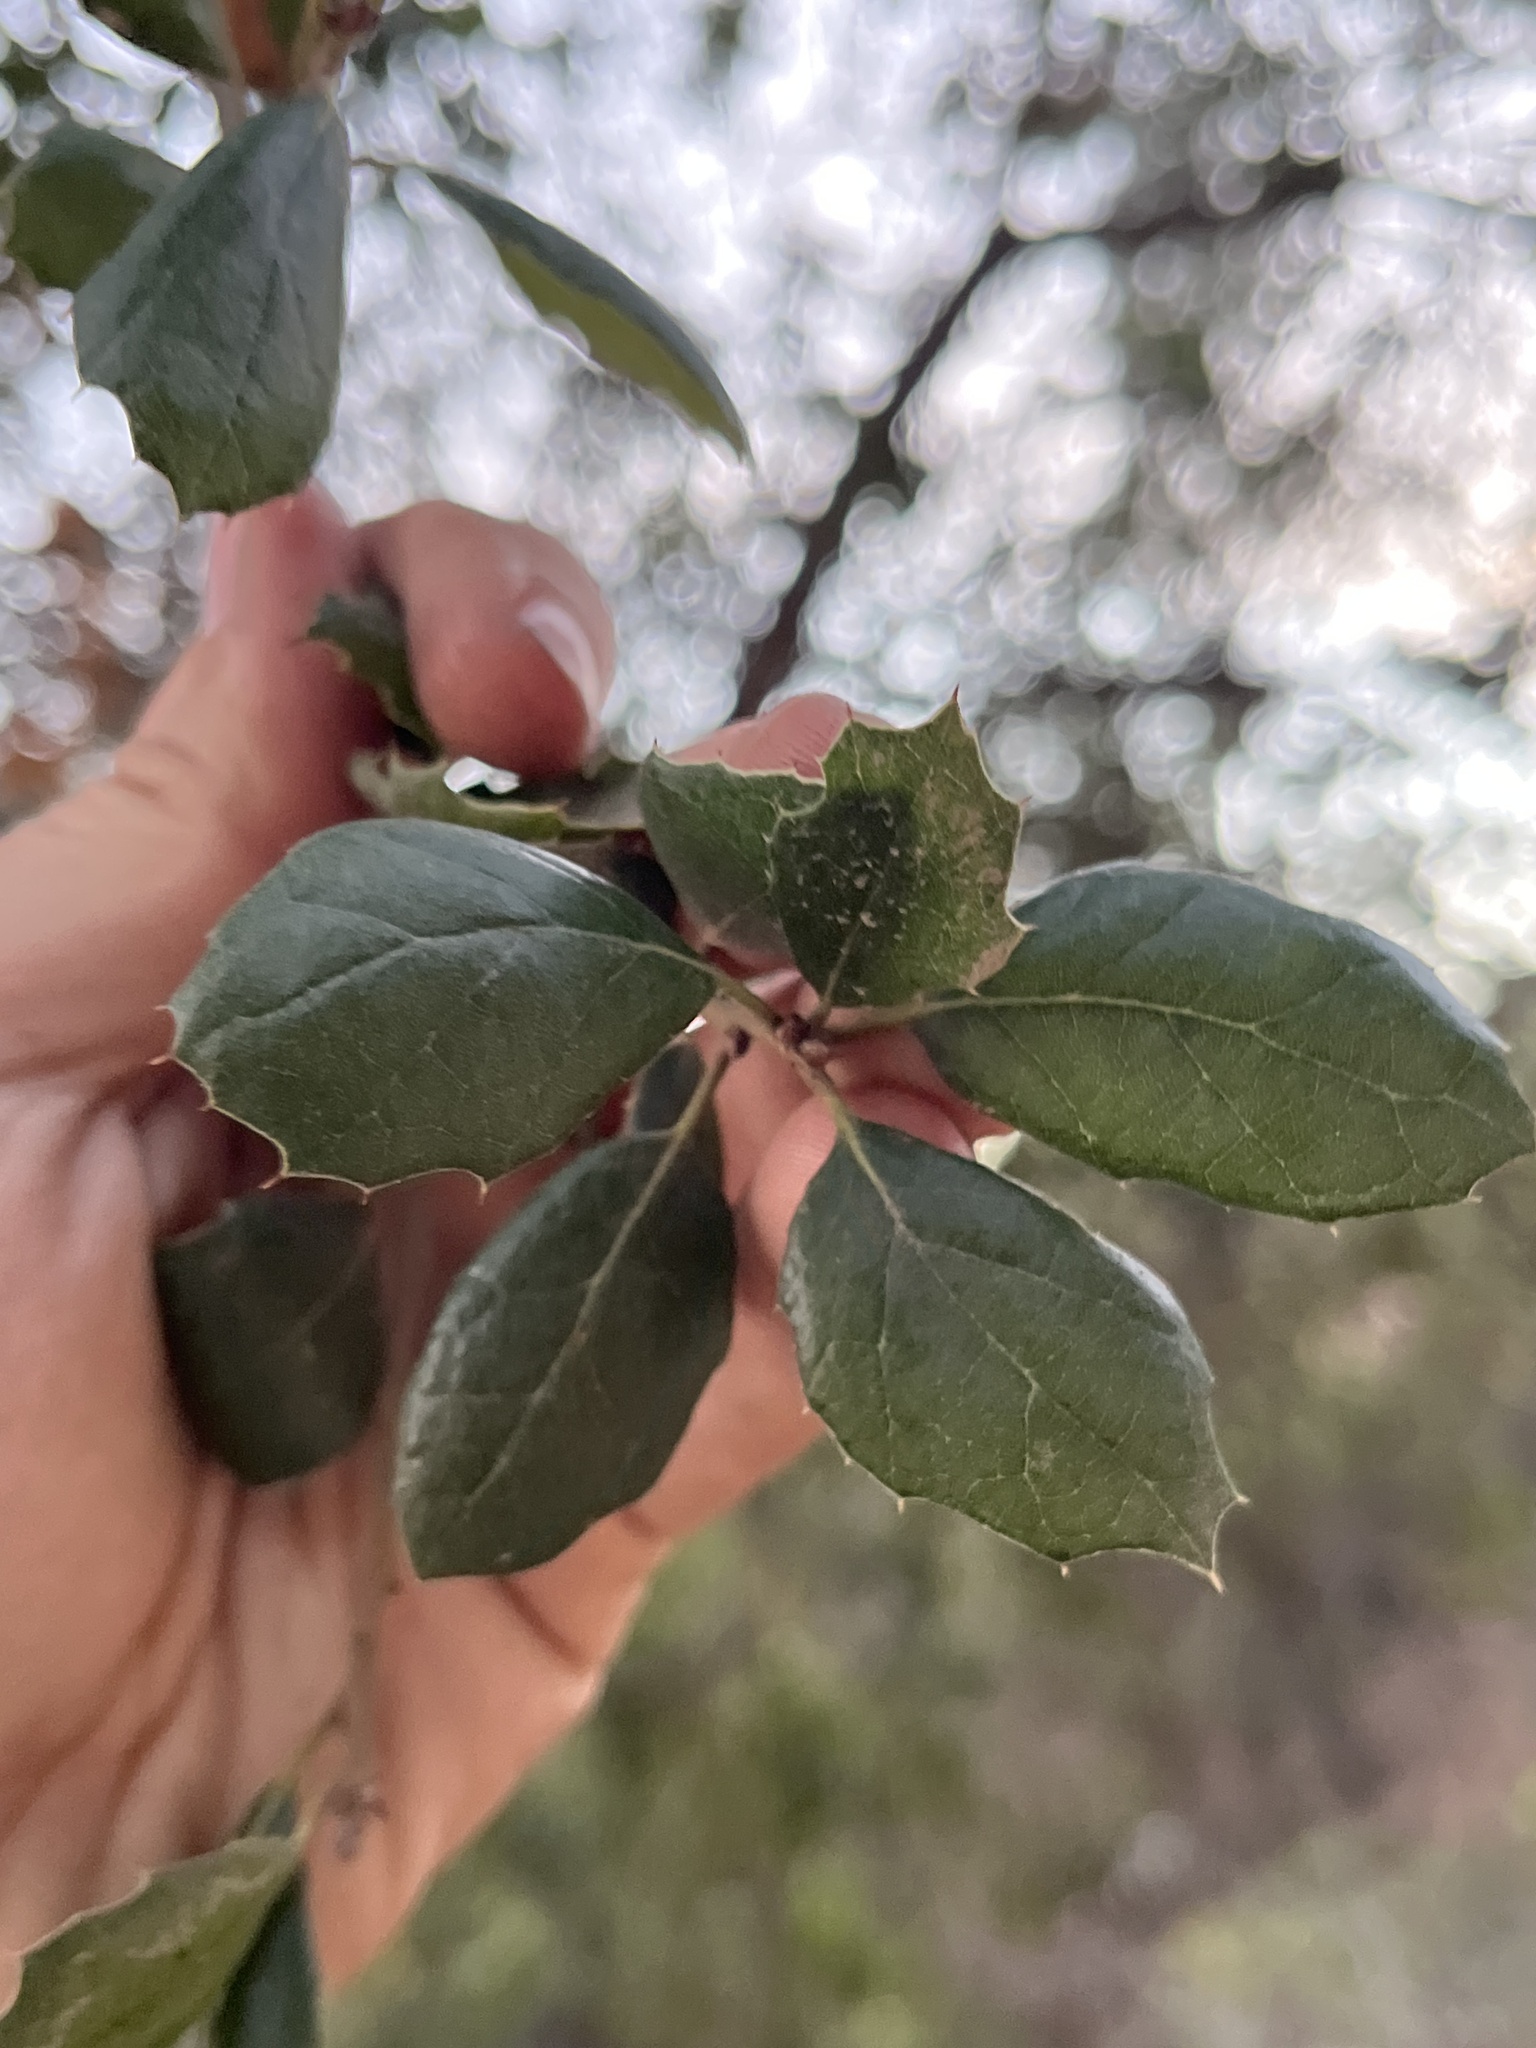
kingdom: Plantae
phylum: Tracheophyta
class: Magnoliopsida
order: Fagales
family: Fagaceae
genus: Quercus
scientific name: Quercus agrifolia
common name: California live oak
